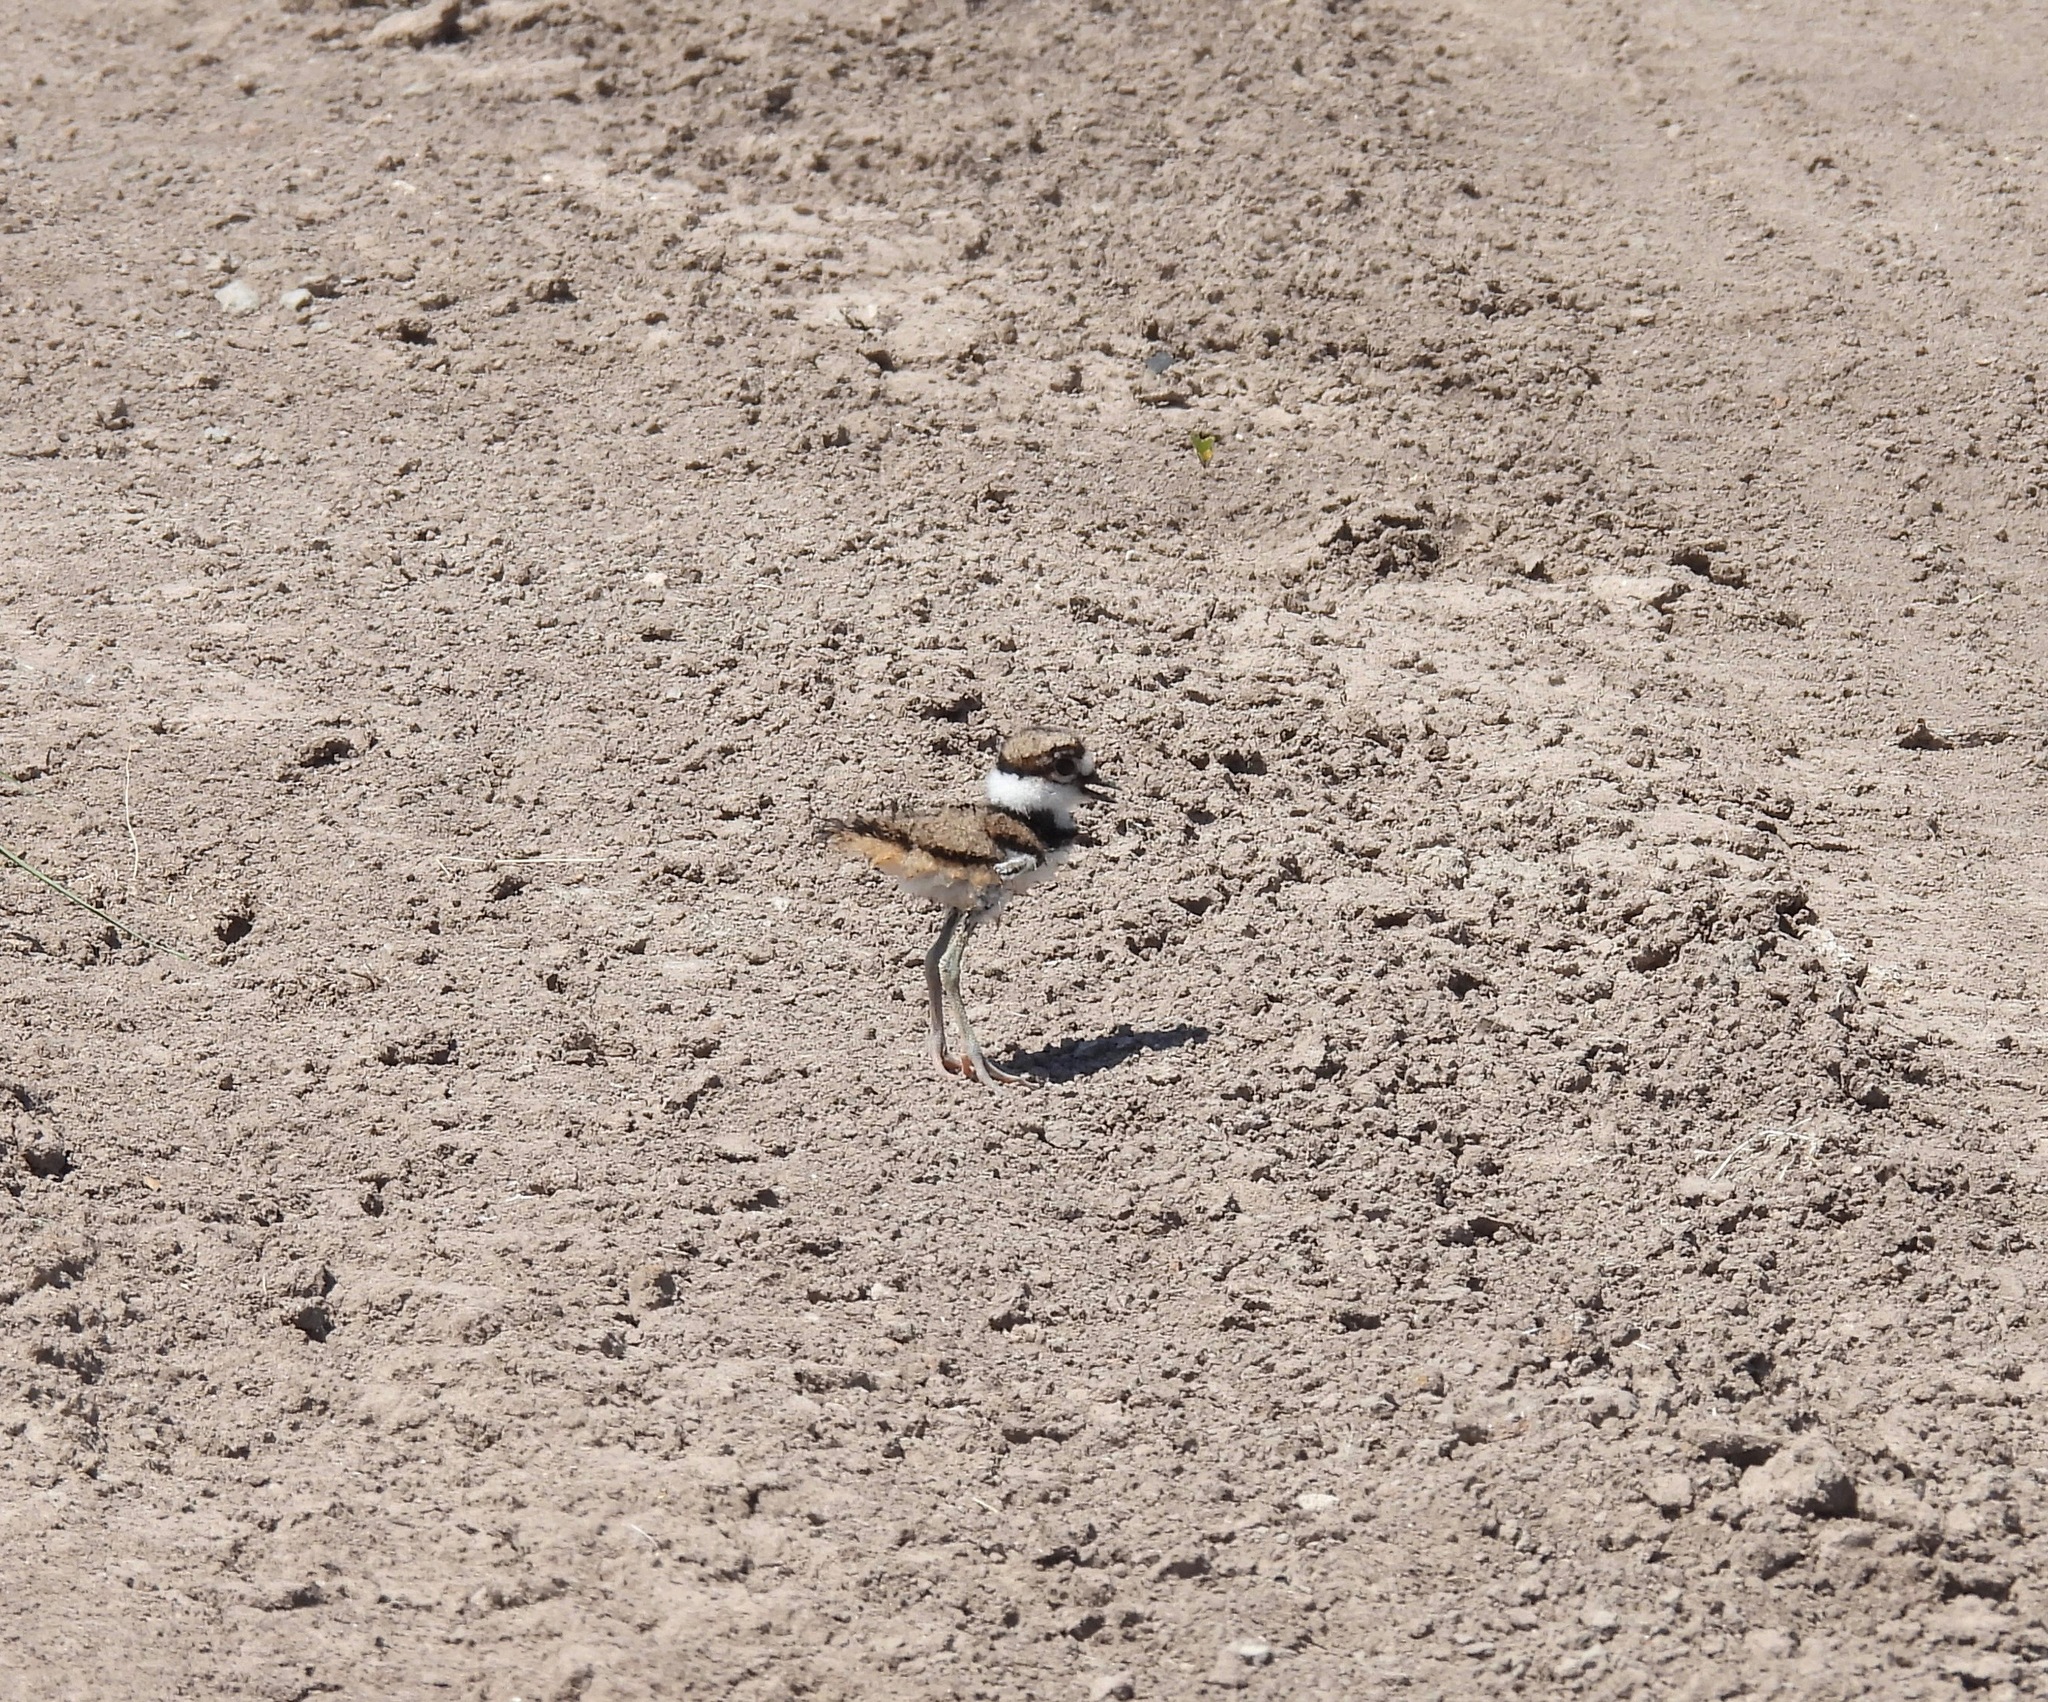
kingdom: Animalia
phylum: Chordata
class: Aves
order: Charadriiformes
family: Charadriidae
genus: Charadrius
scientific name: Charadrius vociferus
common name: Killdeer
